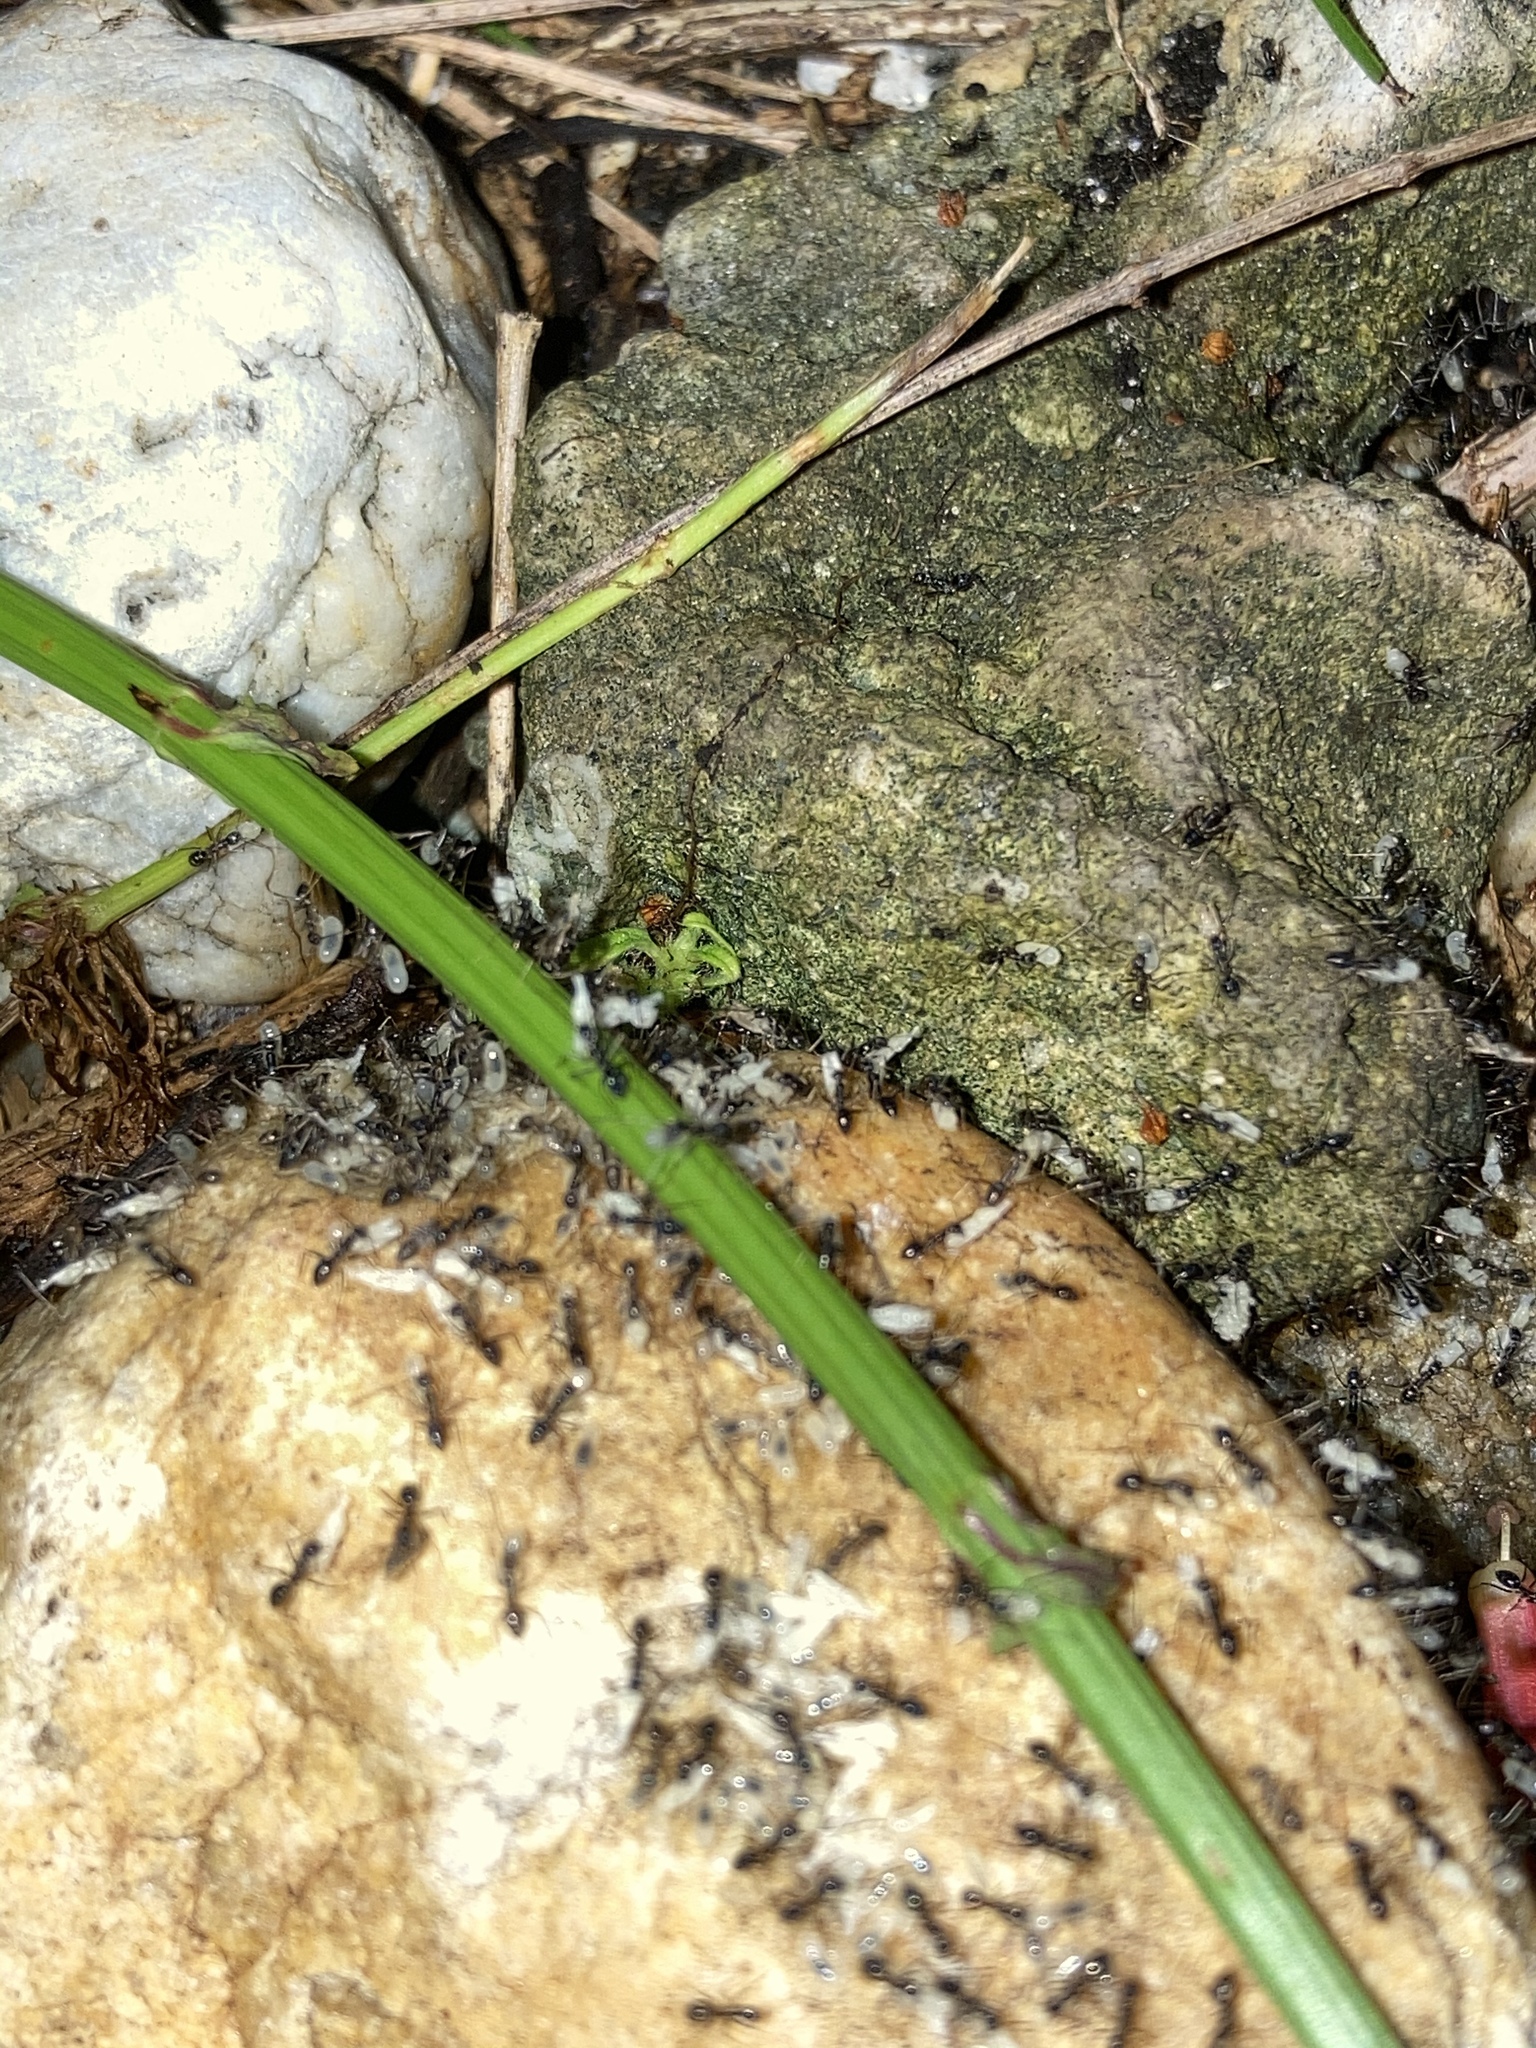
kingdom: Animalia
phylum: Arthropoda
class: Insecta
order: Hymenoptera
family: Formicidae
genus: Paratrechina
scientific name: Paratrechina longicornis
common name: Longhorned crazy ant
